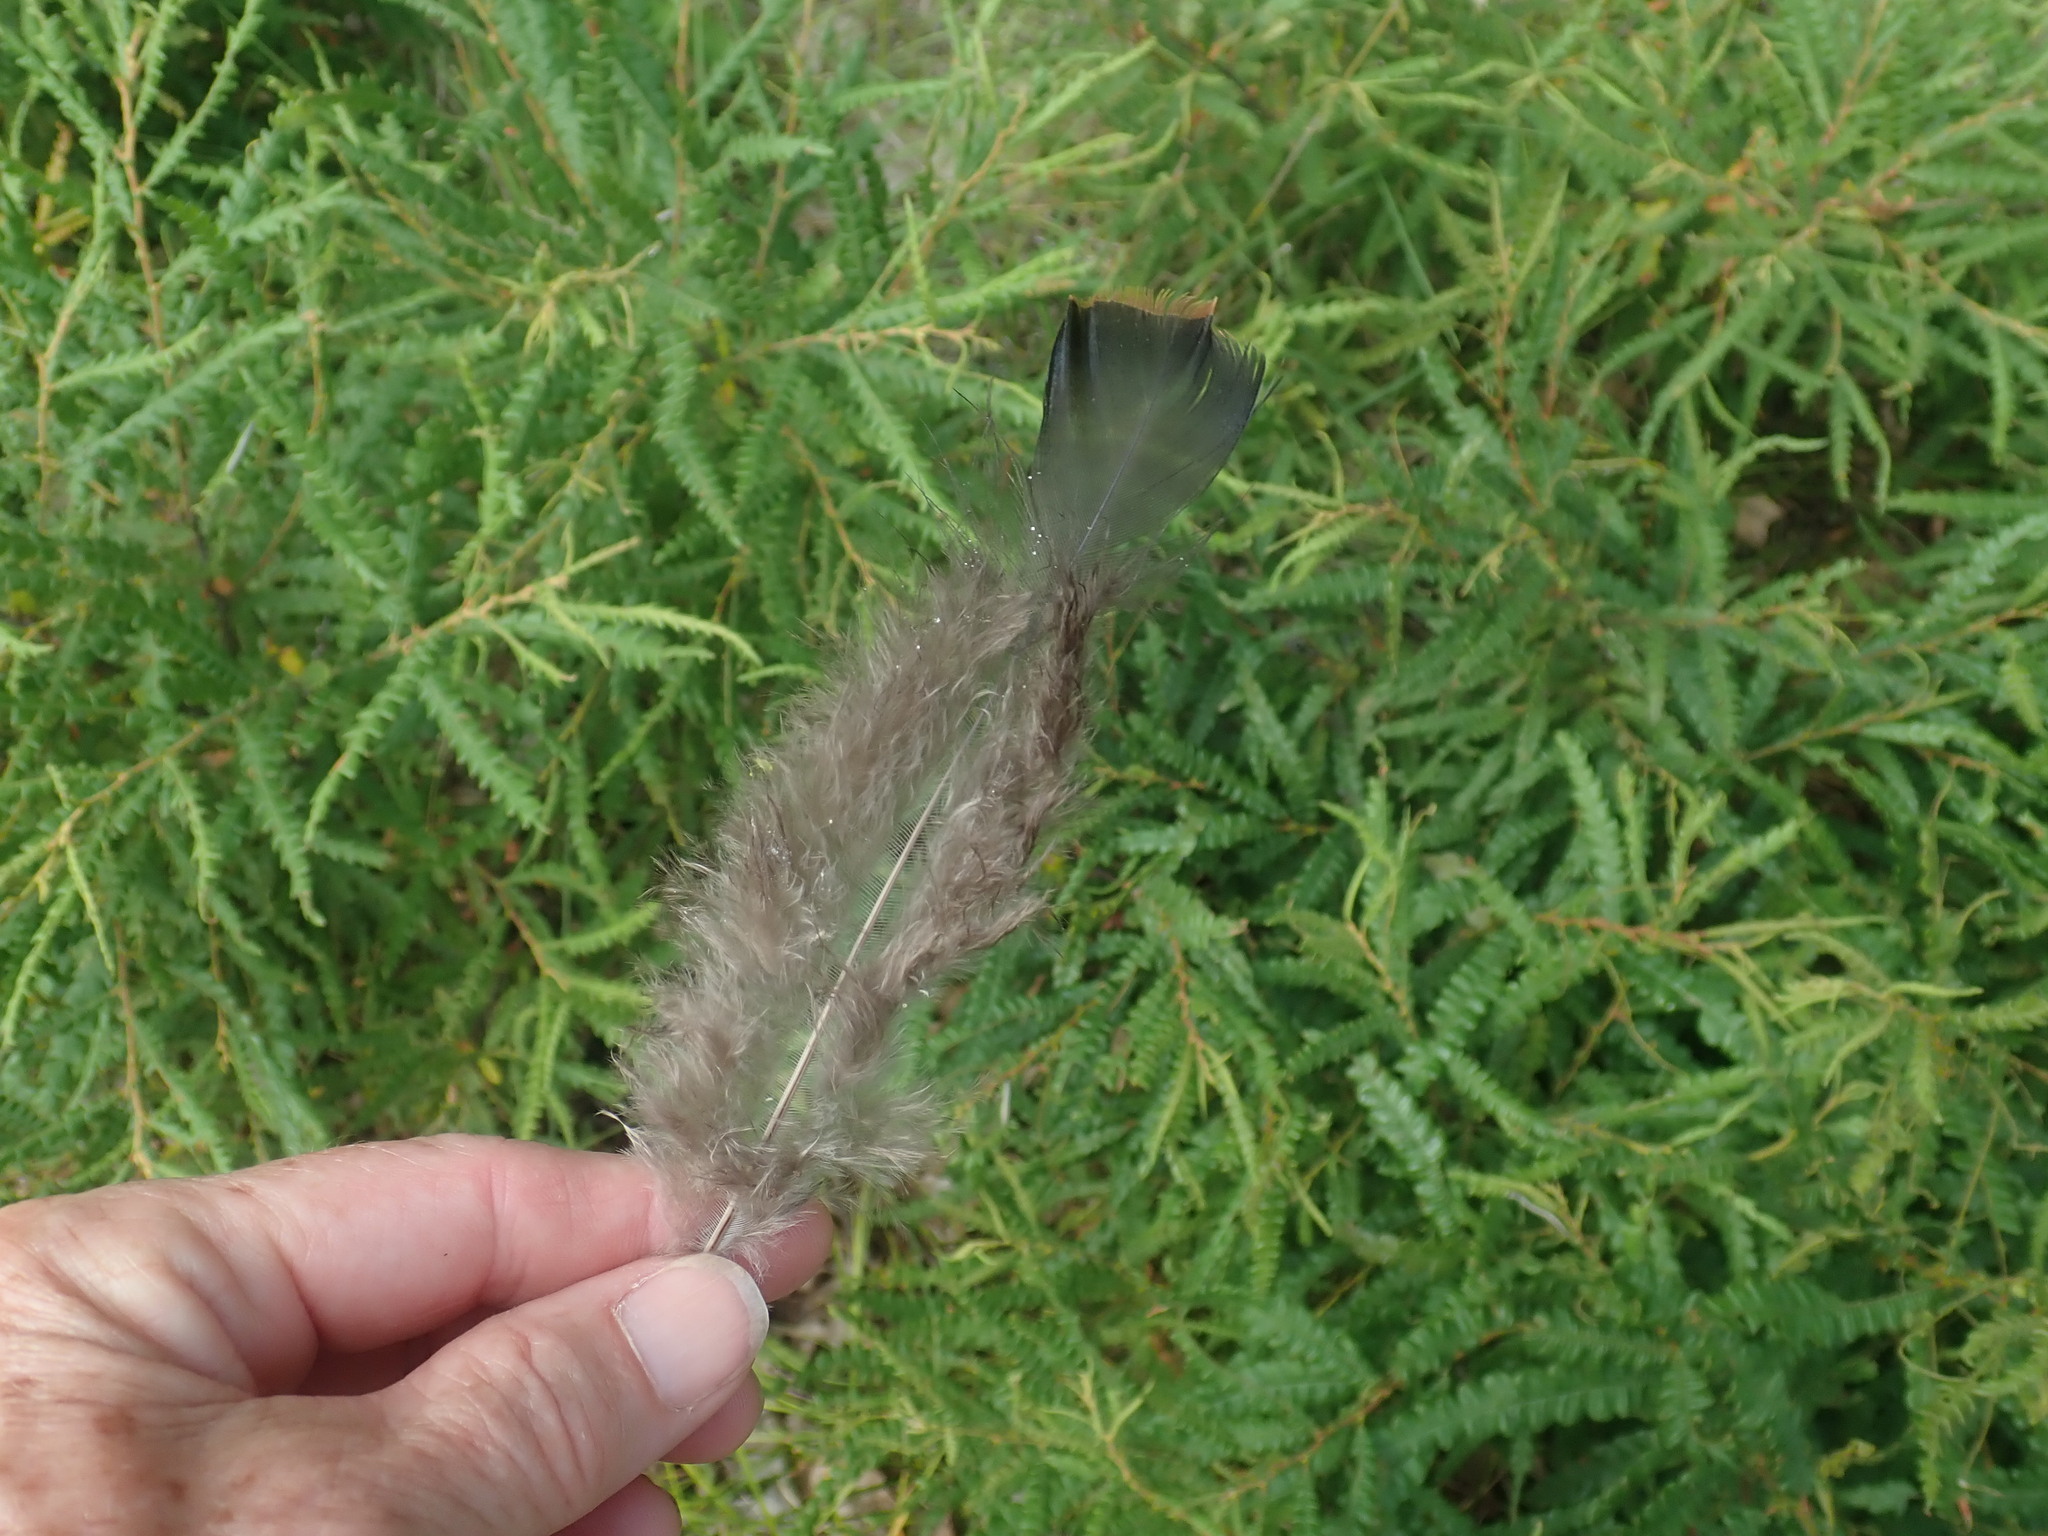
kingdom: Animalia
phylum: Chordata
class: Aves
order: Galliformes
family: Phasianidae
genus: Meleagris
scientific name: Meleagris gallopavo
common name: Wild turkey
